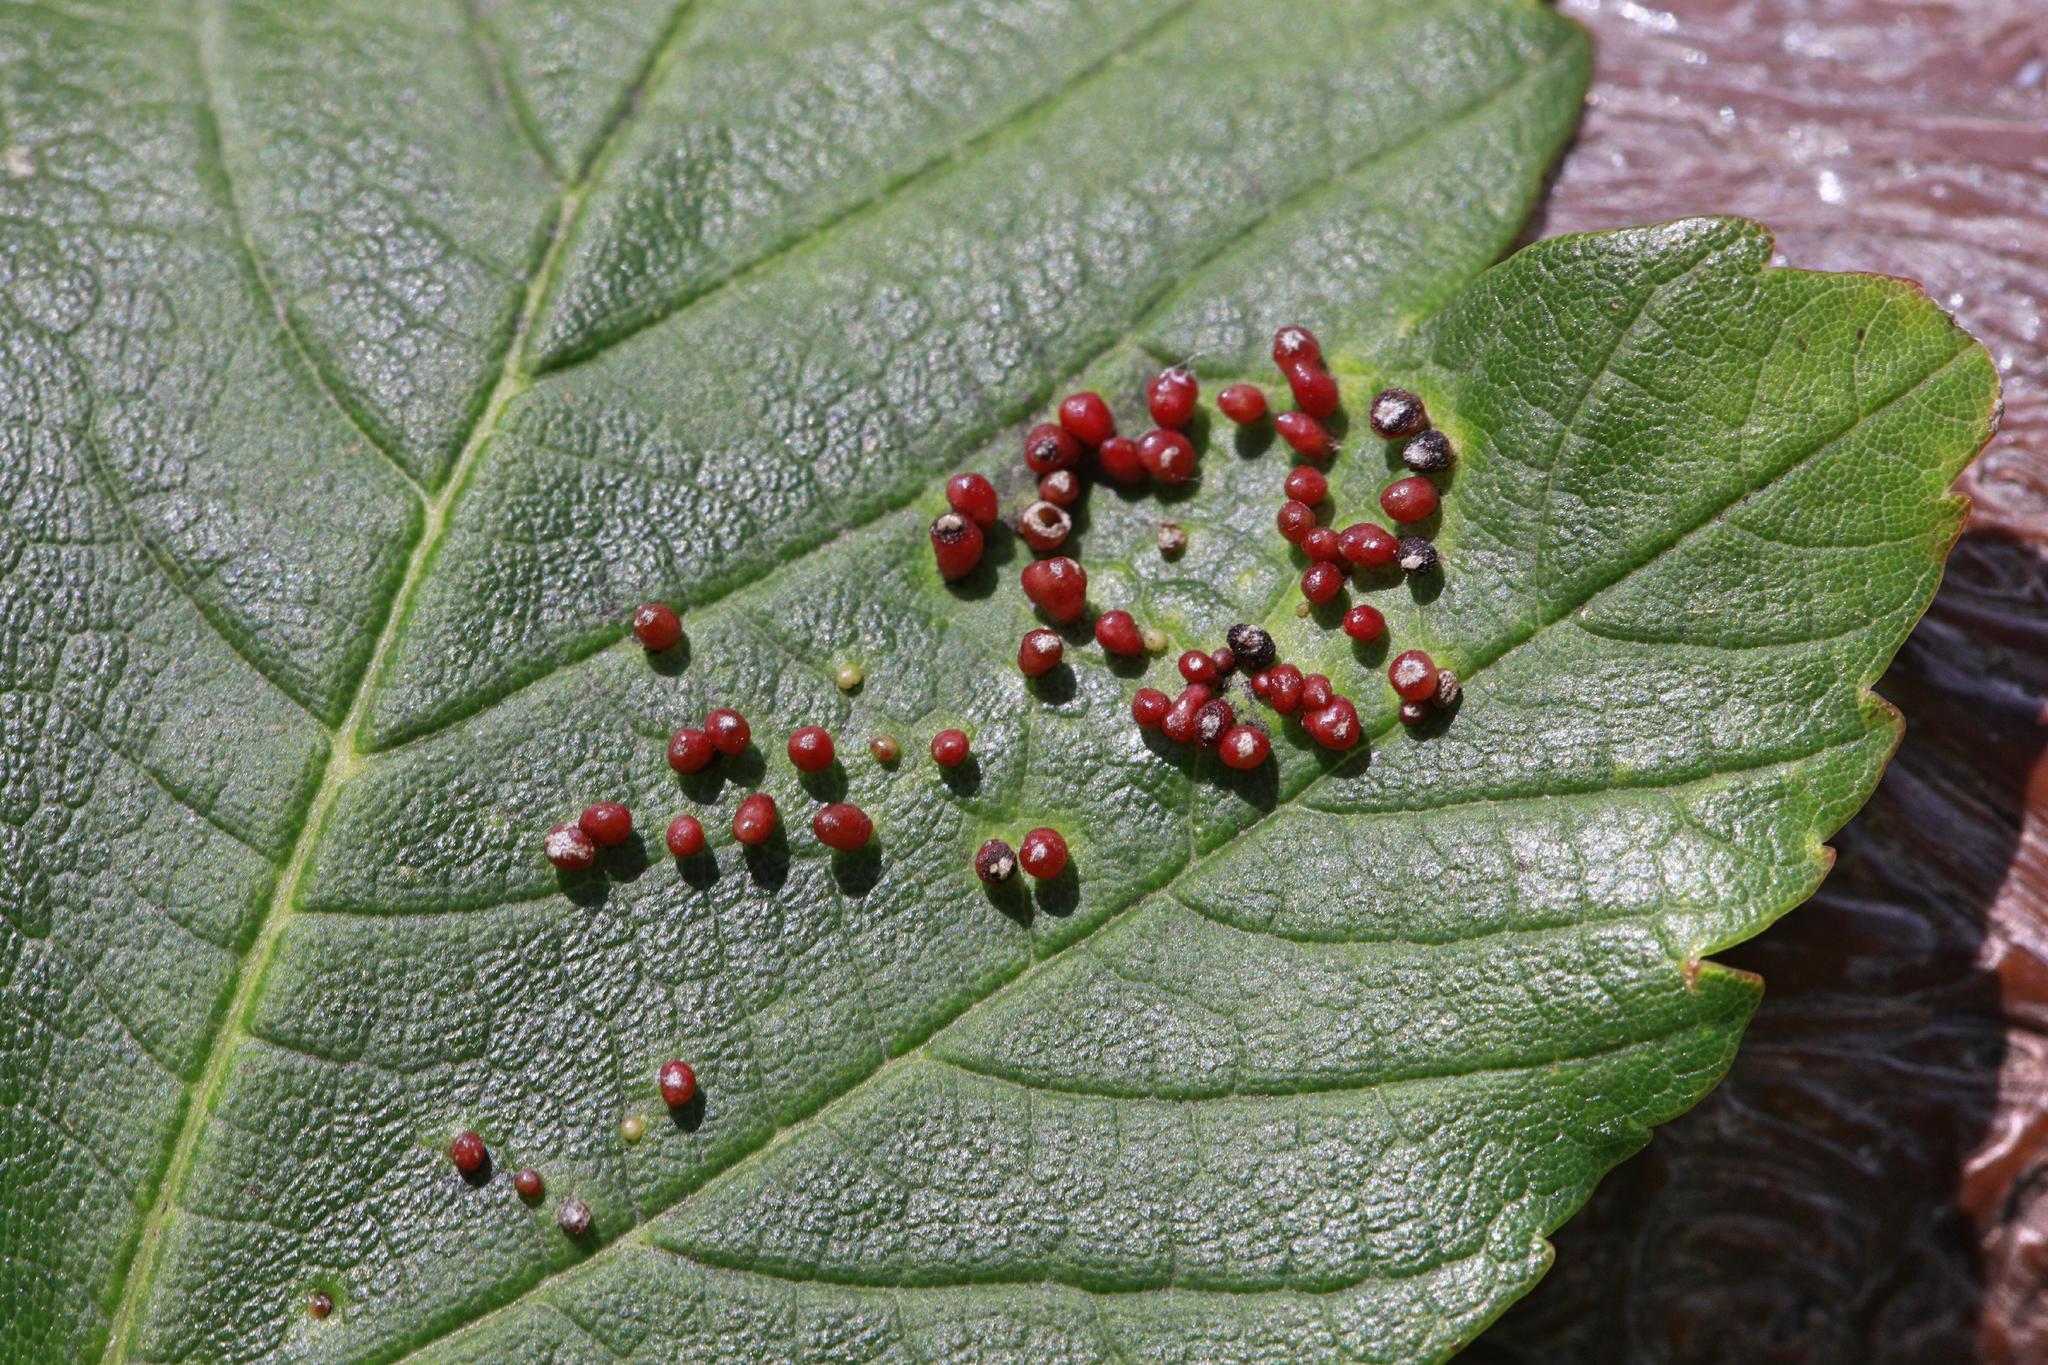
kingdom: Animalia
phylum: Arthropoda
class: Arachnida
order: Trombidiformes
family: Eriophyidae
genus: Aceria
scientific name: Aceria cephaloneus
